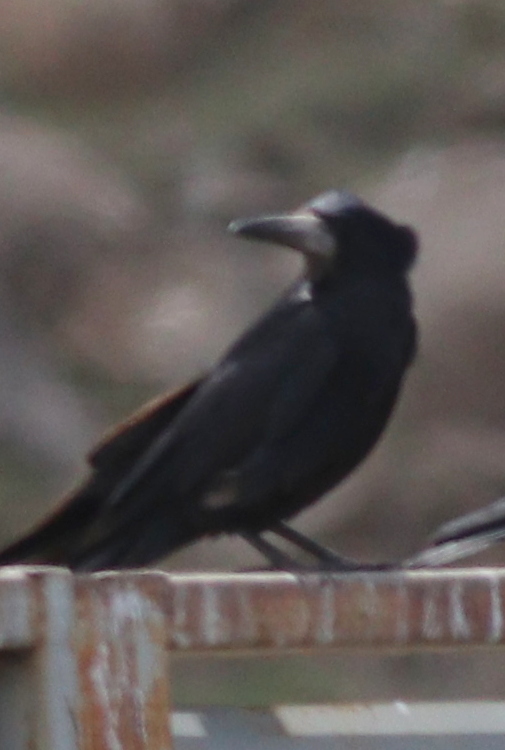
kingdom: Animalia
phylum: Chordata
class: Aves
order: Passeriformes
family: Corvidae
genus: Corvus
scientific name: Corvus frugilegus
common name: Rook
